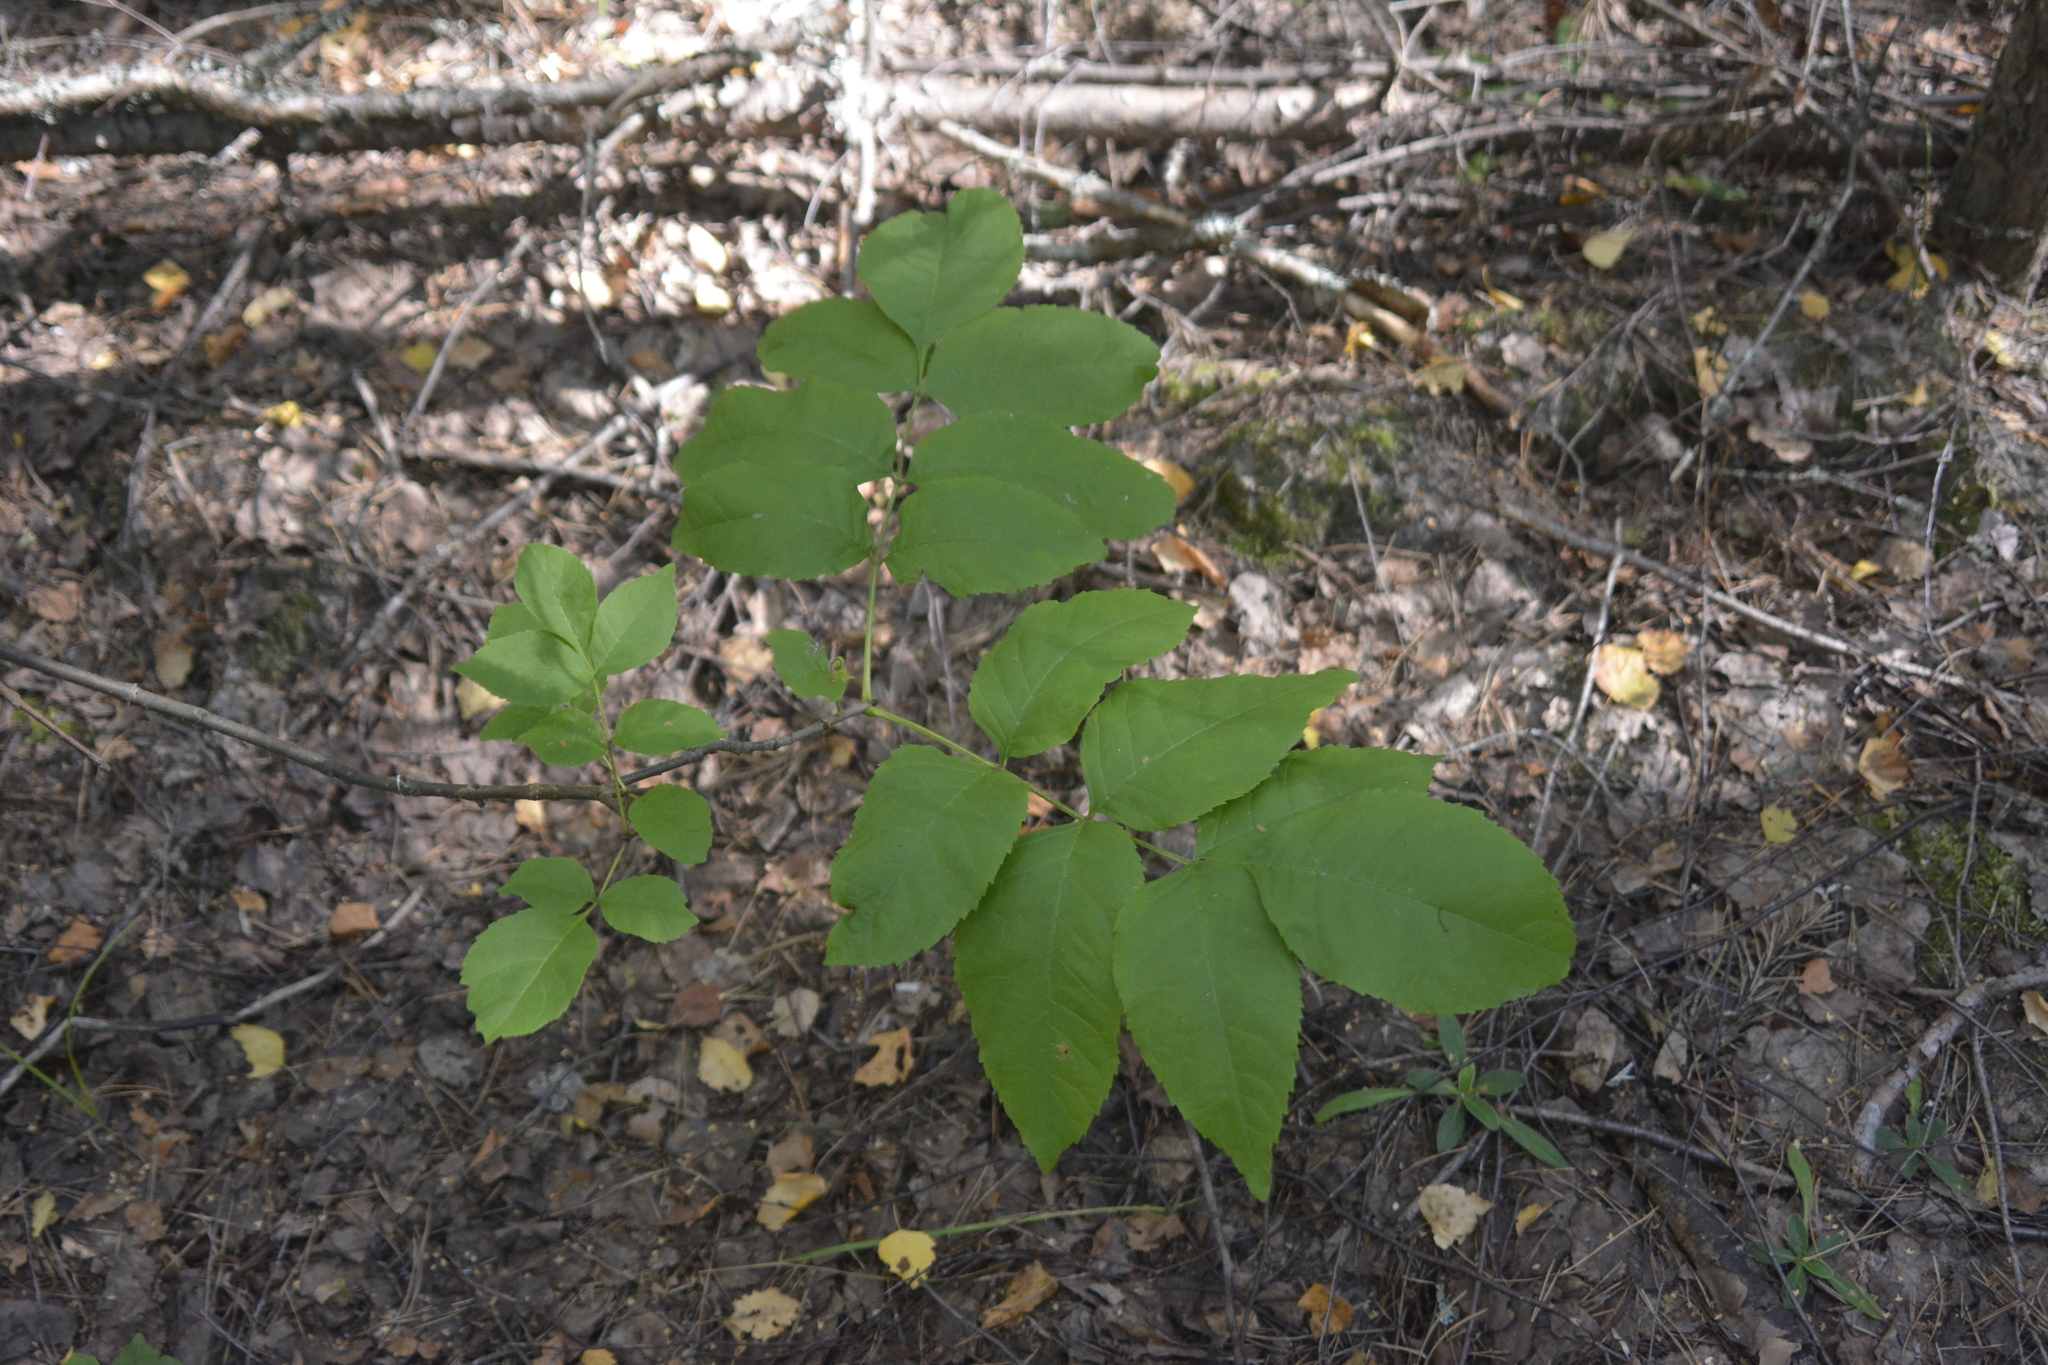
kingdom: Plantae
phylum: Tracheophyta
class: Magnoliopsida
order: Lamiales
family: Oleaceae
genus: Fraxinus
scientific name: Fraxinus pennsylvanica
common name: Green ash
